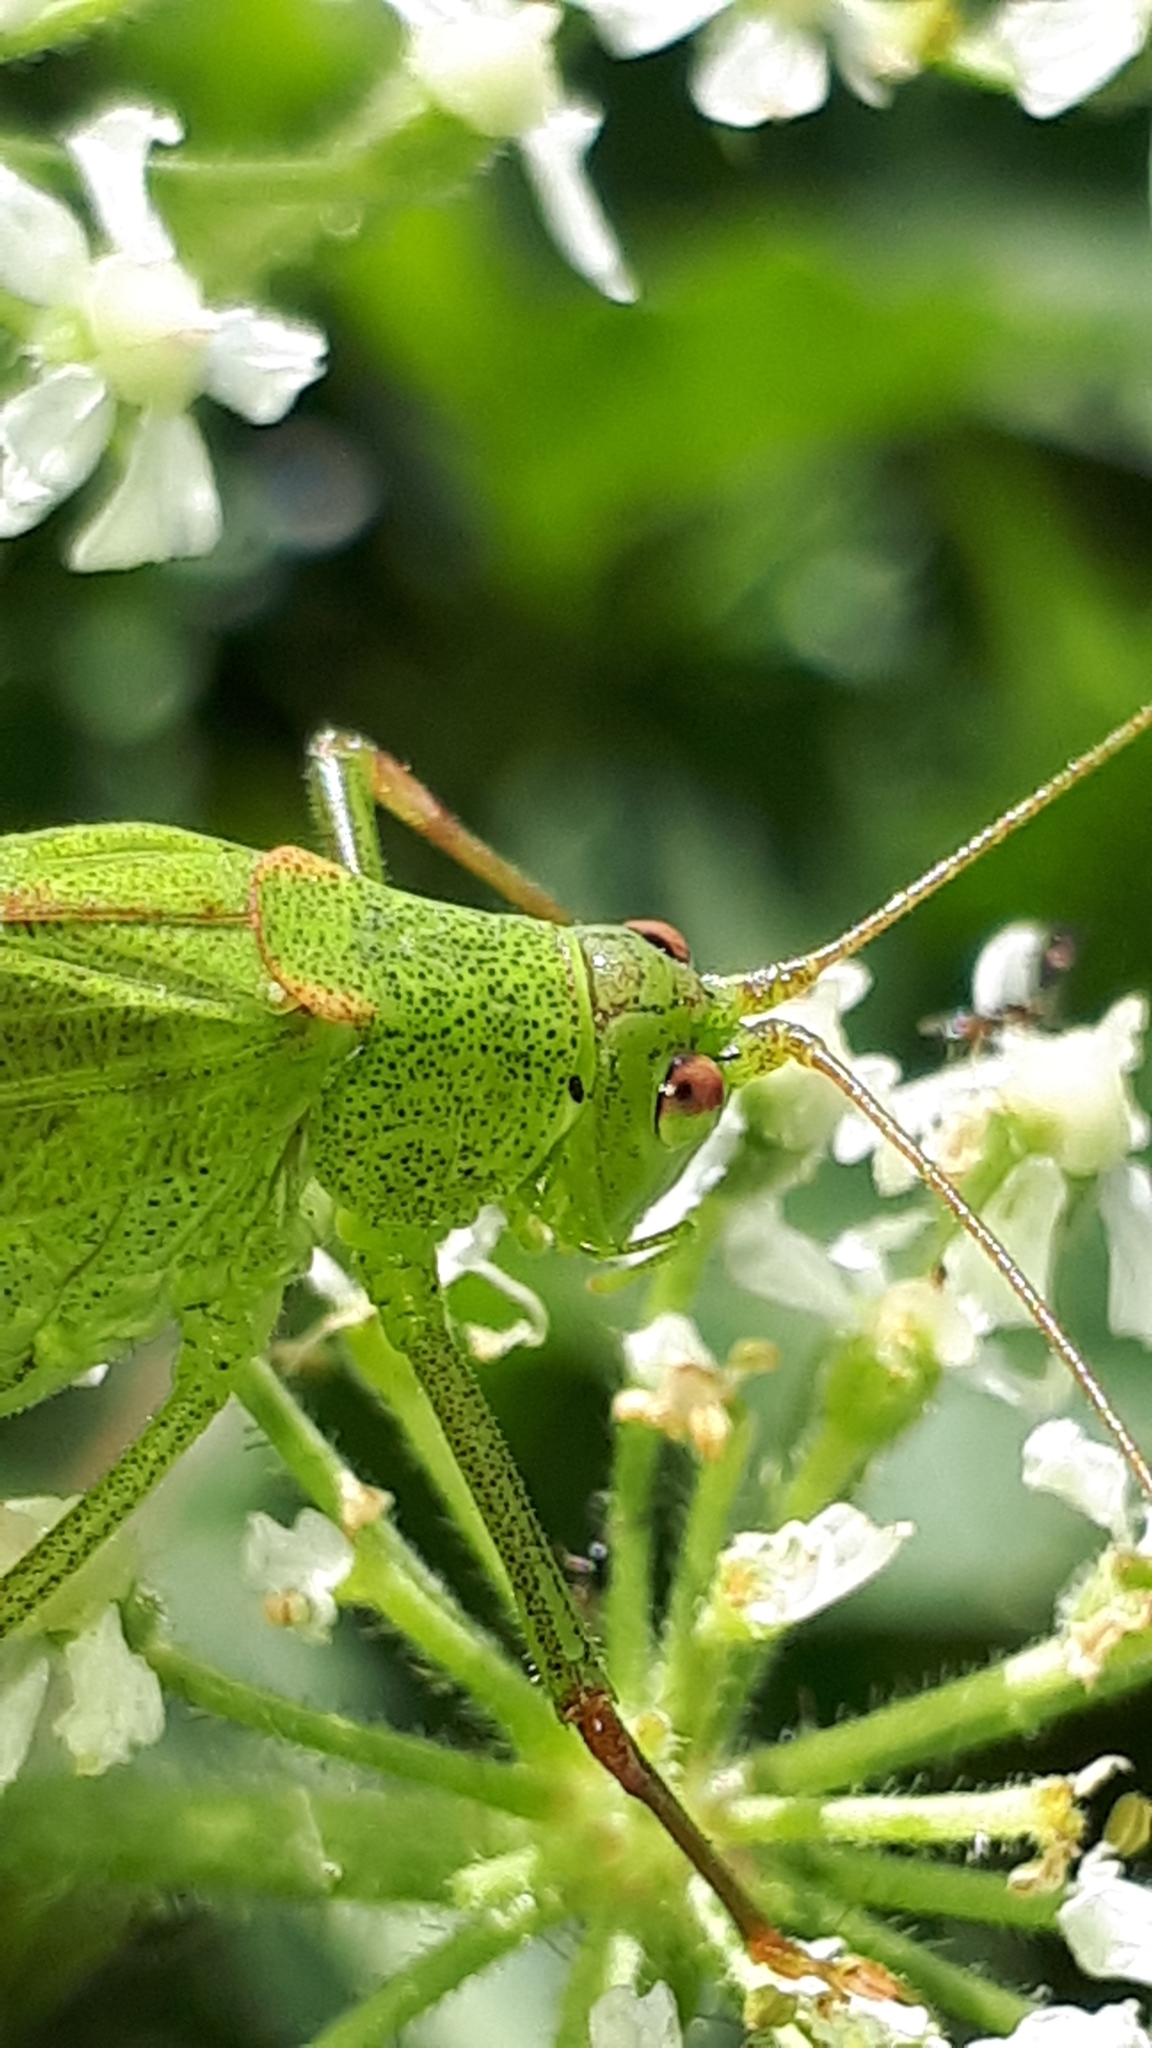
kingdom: Animalia
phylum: Arthropoda
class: Insecta
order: Orthoptera
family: Tettigoniidae
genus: Phaneroptera
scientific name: Phaneroptera falcata
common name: Sickle-bearing bush-cricket
